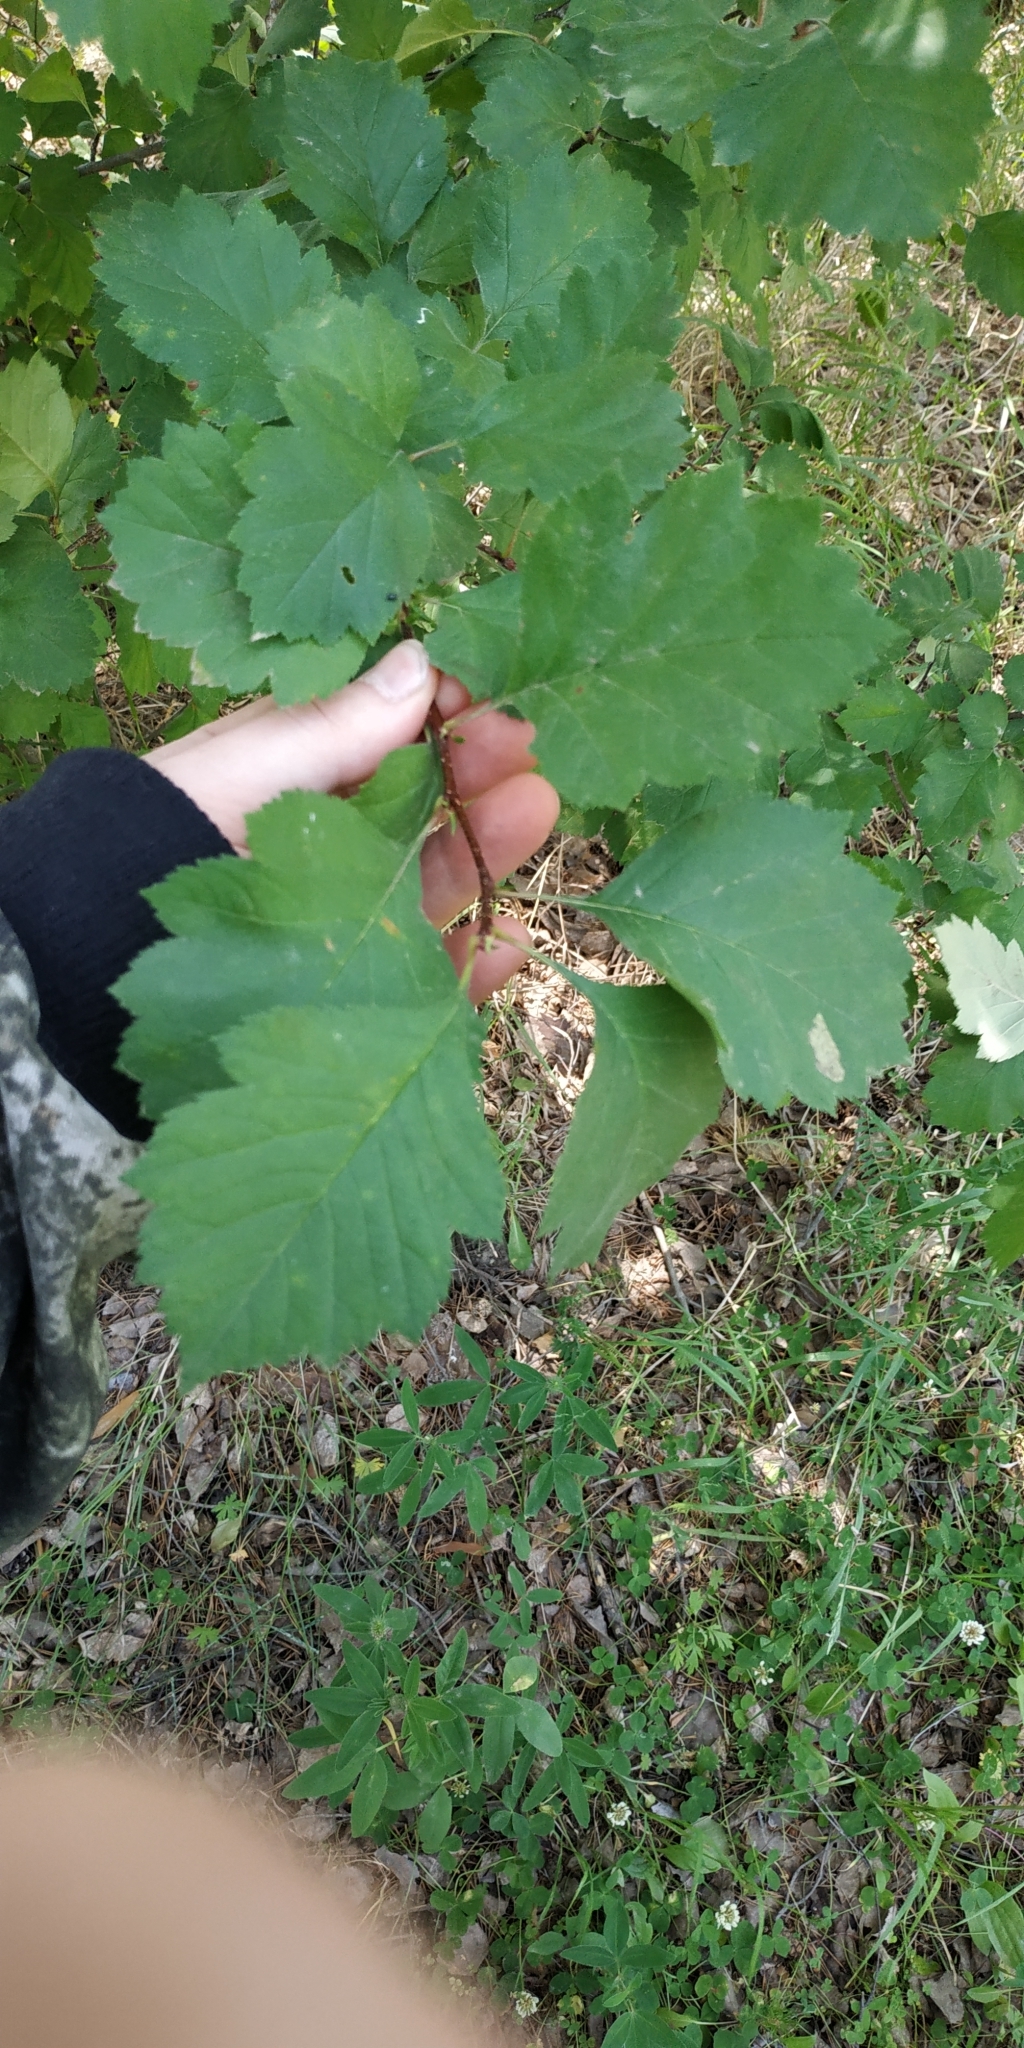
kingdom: Plantae
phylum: Tracheophyta
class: Magnoliopsida
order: Rosales
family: Rosaceae
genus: Crataegus
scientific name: Crataegus sanguinea
